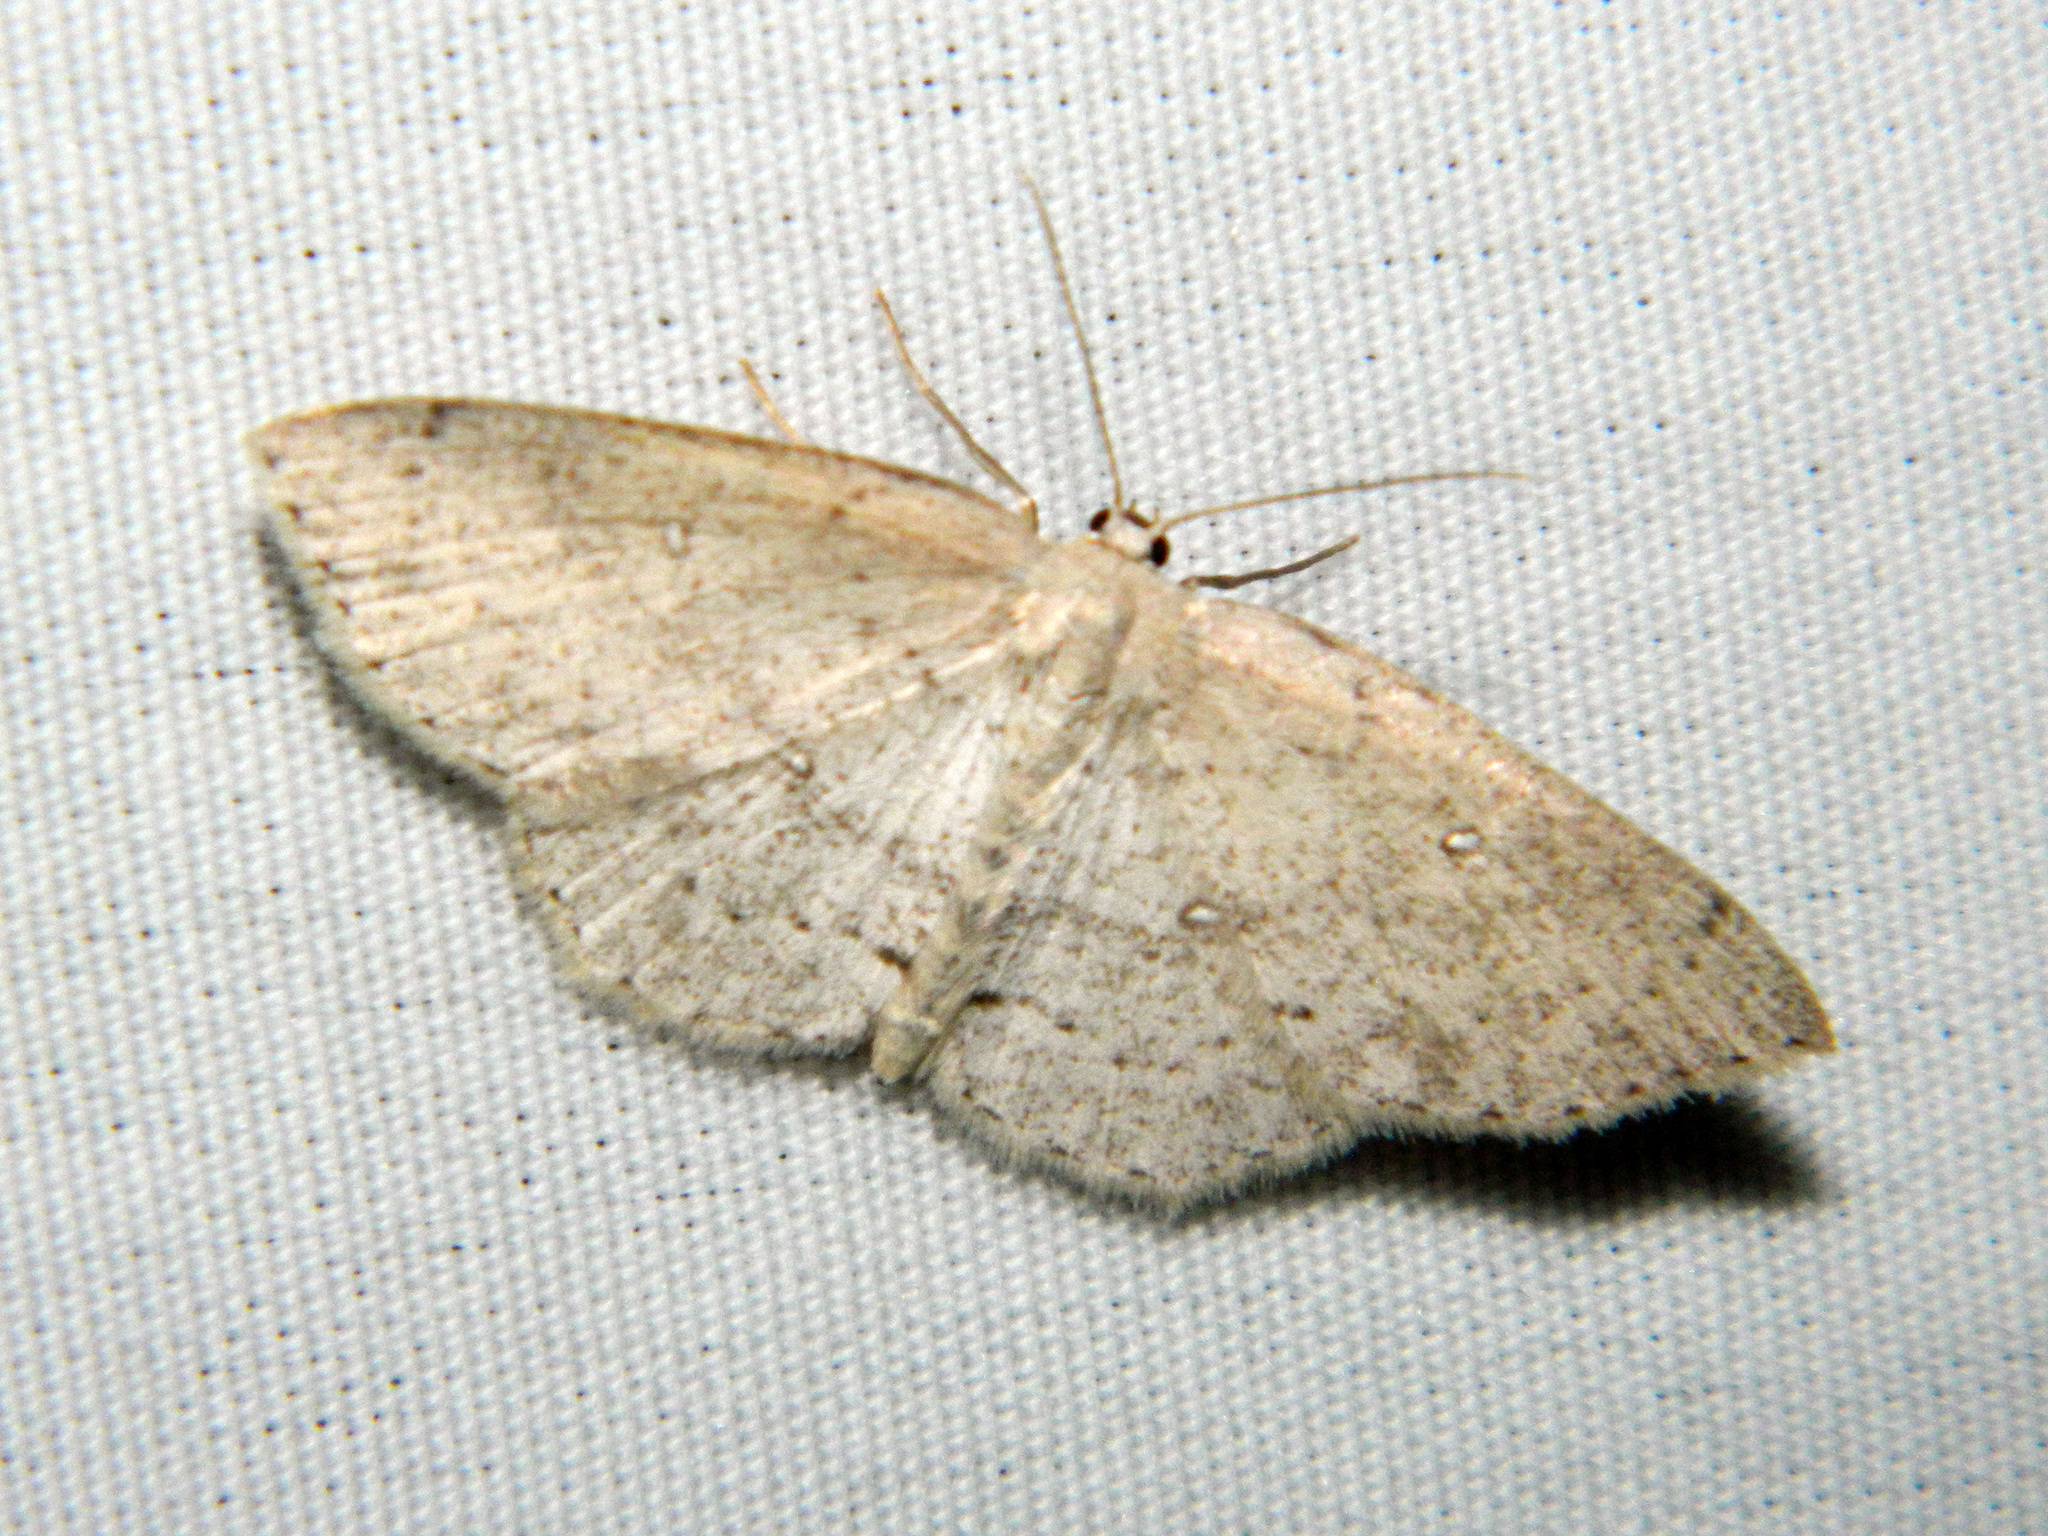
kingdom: Animalia
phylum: Arthropoda
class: Insecta
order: Lepidoptera
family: Geometridae
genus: Cyclophora
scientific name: Cyclophora pendulinaria
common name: Sweet fern geometer
